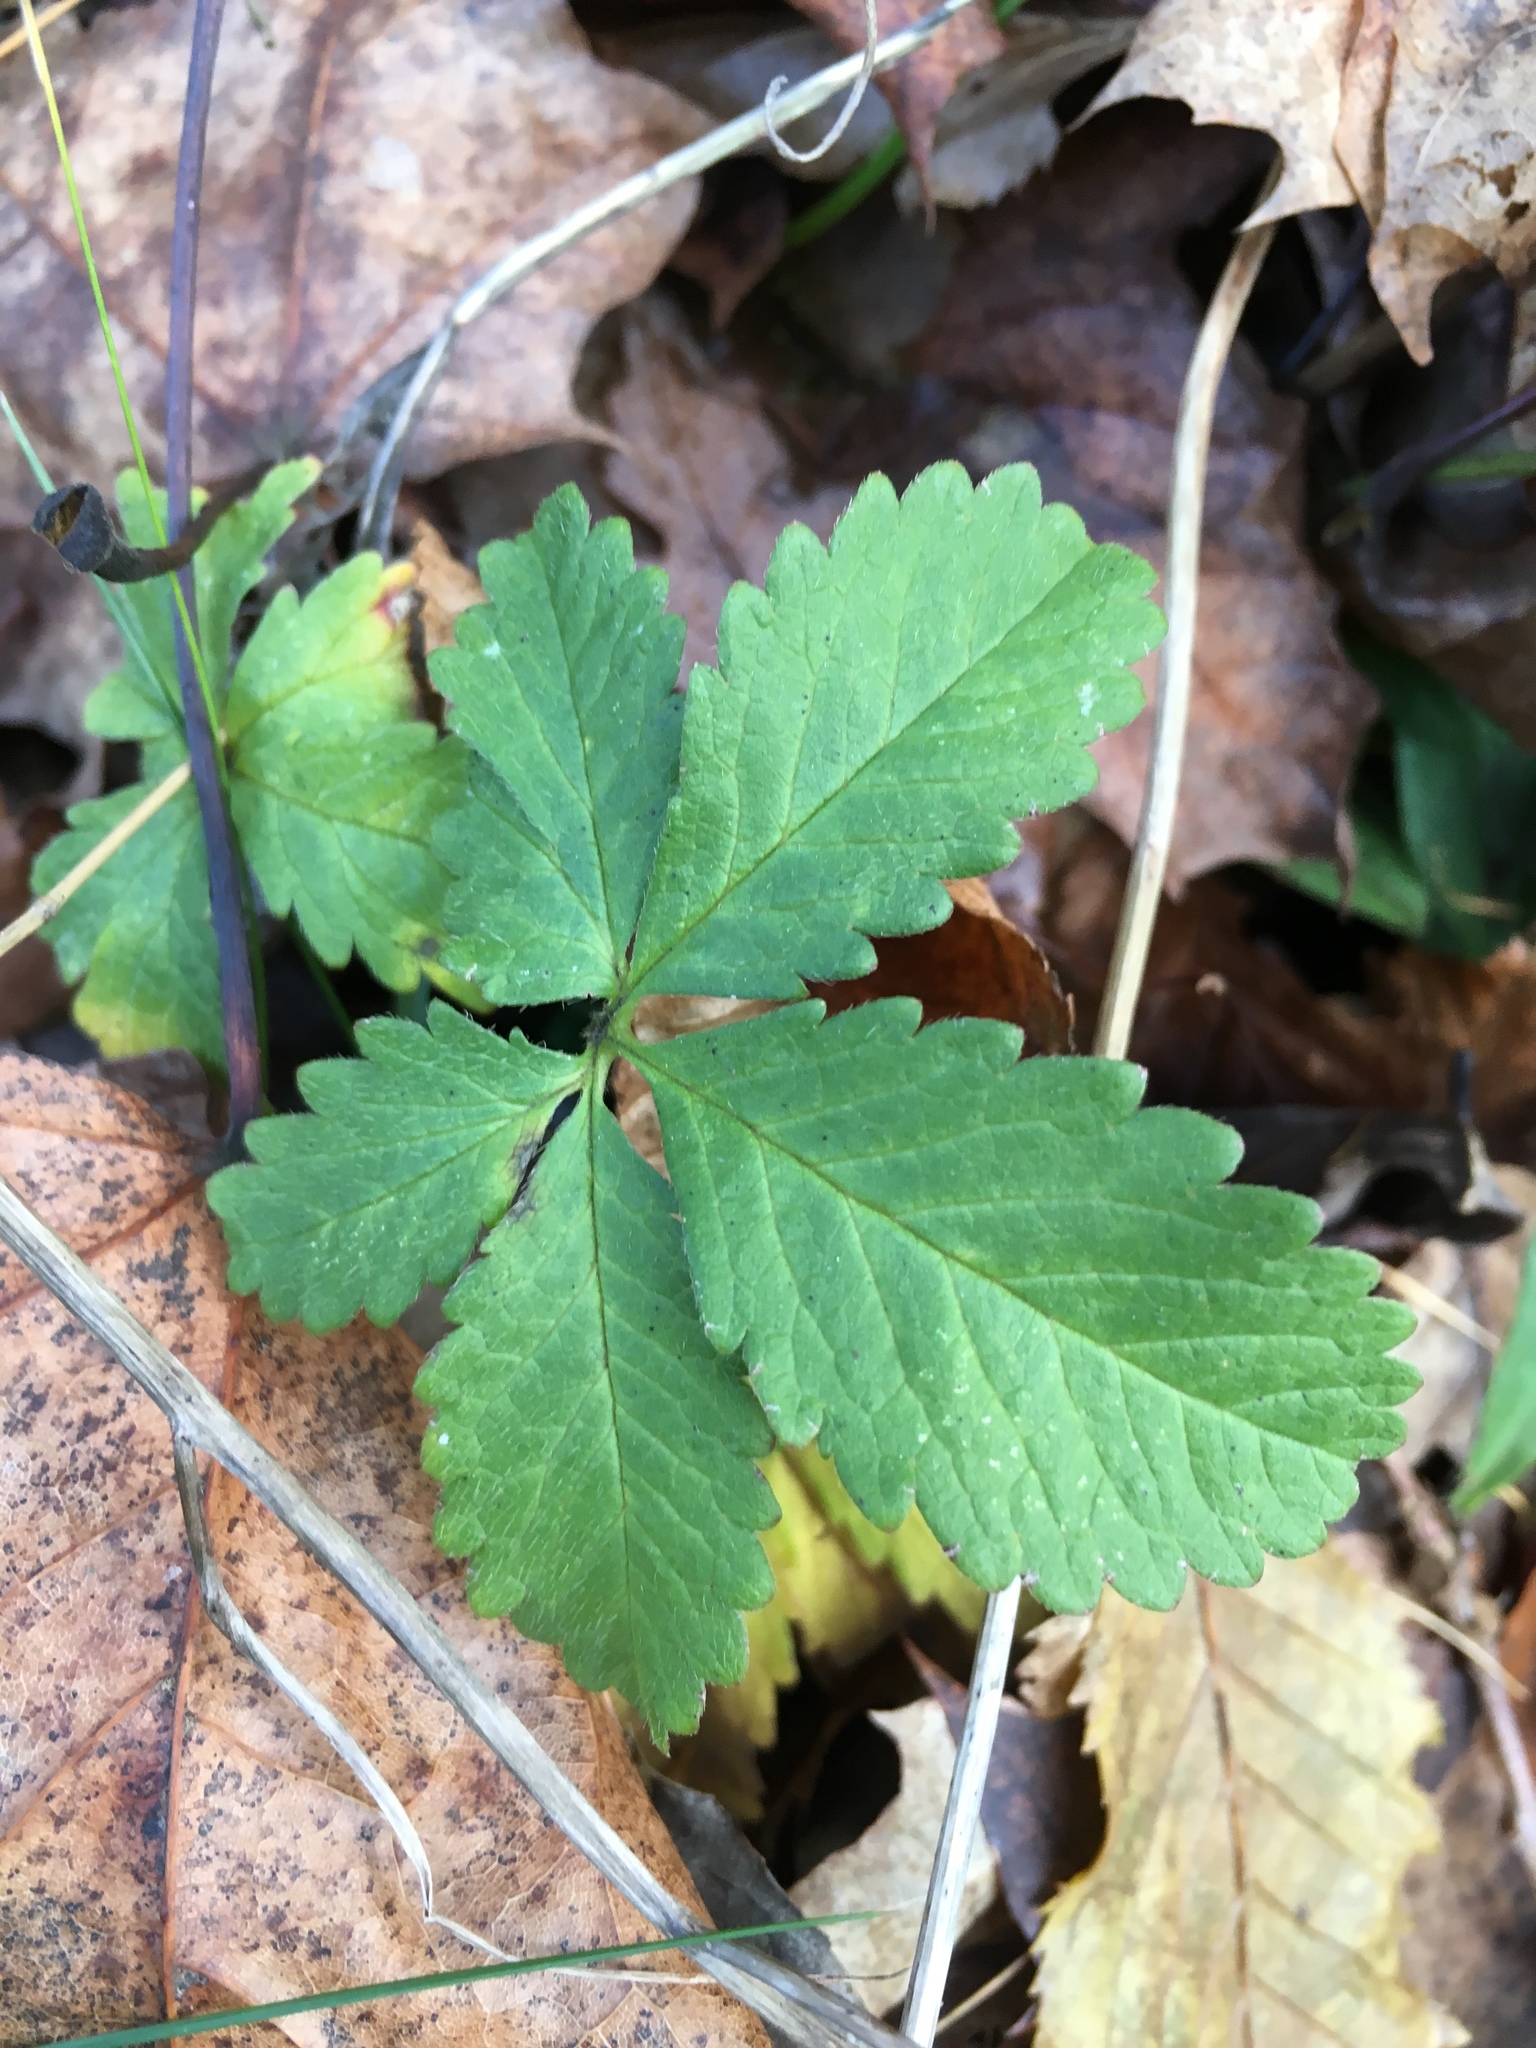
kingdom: Plantae
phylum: Tracheophyta
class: Magnoliopsida
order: Rosales
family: Rosaceae
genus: Potentilla
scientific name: Potentilla reptans
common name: Creeping cinquefoil
